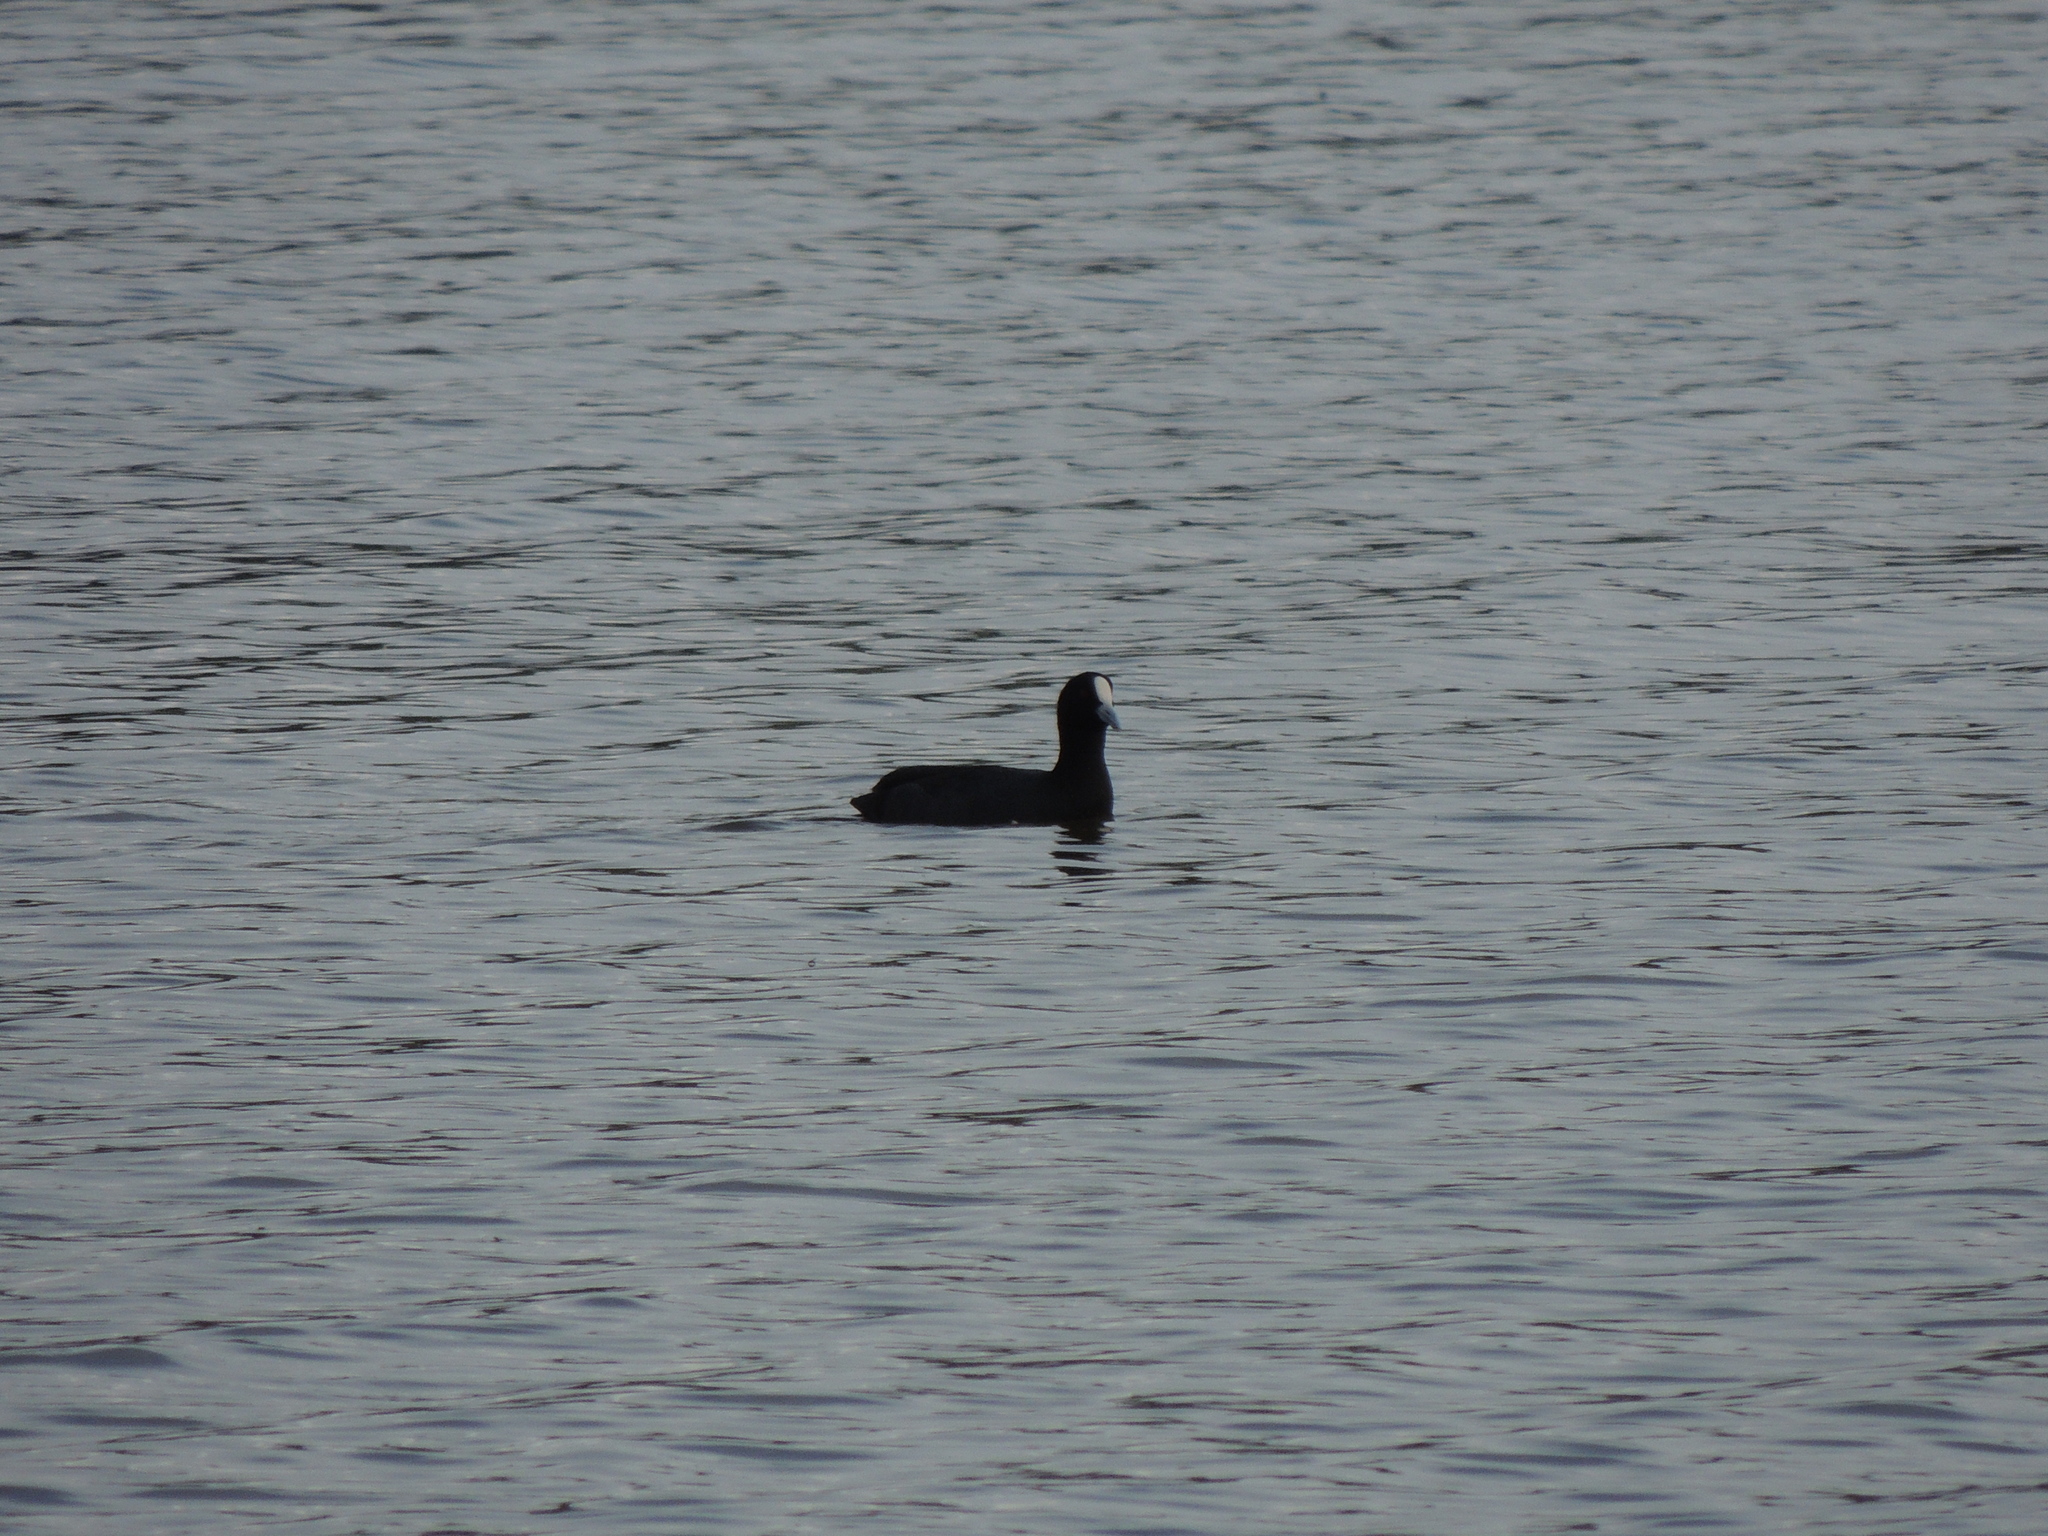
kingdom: Animalia
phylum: Chordata
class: Aves
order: Gruiformes
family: Rallidae
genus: Fulica
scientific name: Fulica atra
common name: Eurasian coot
